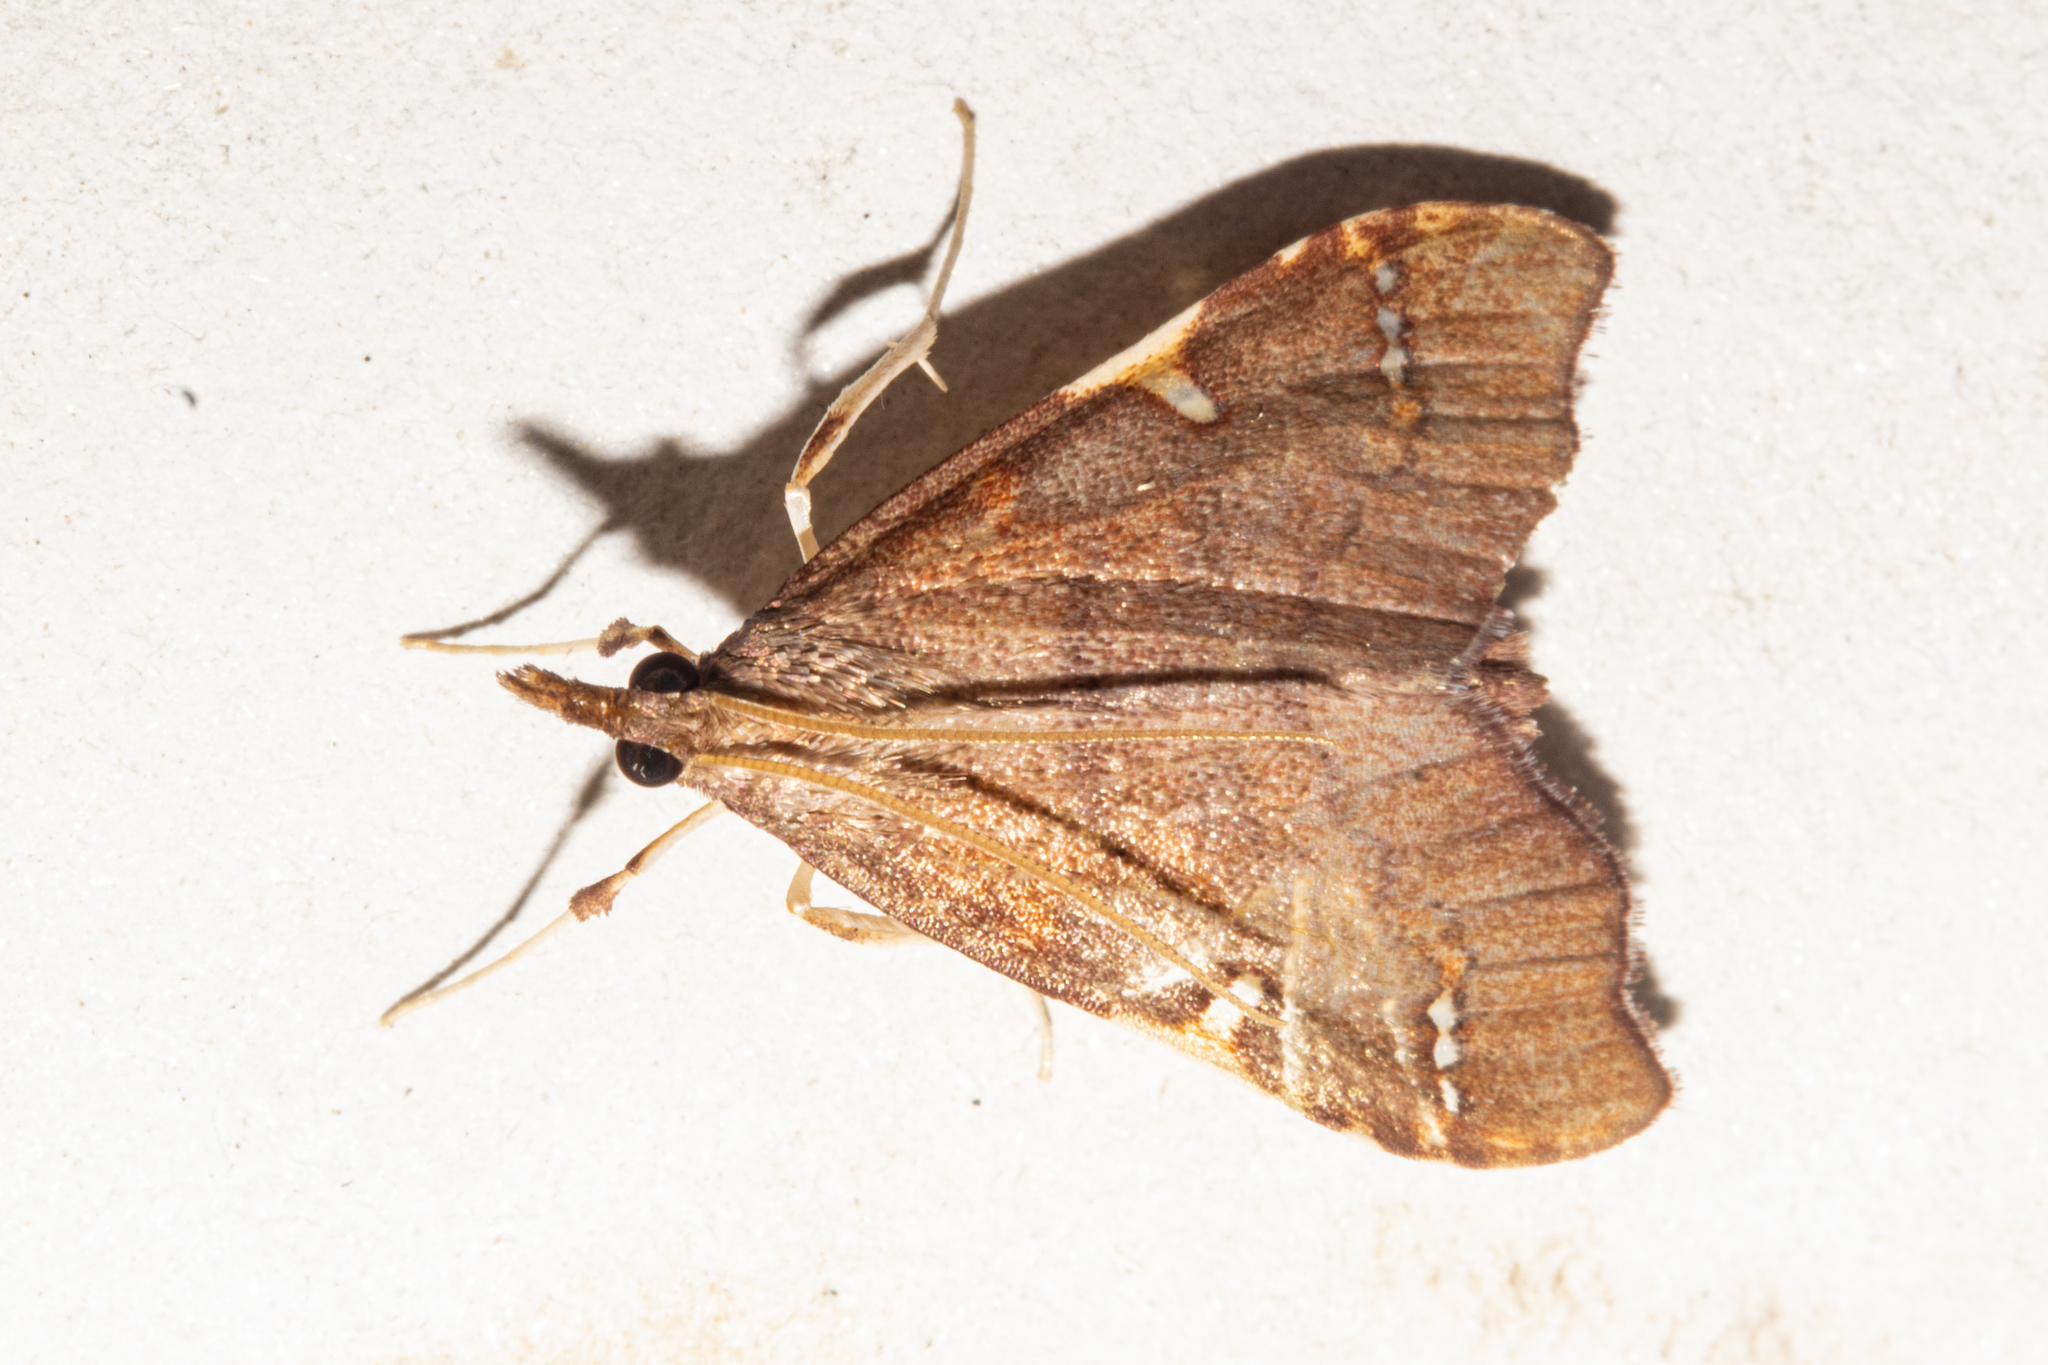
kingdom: Animalia
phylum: Arthropoda
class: Insecta
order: Lepidoptera
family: Crambidae
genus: Deana
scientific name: Deana hybreasalis
